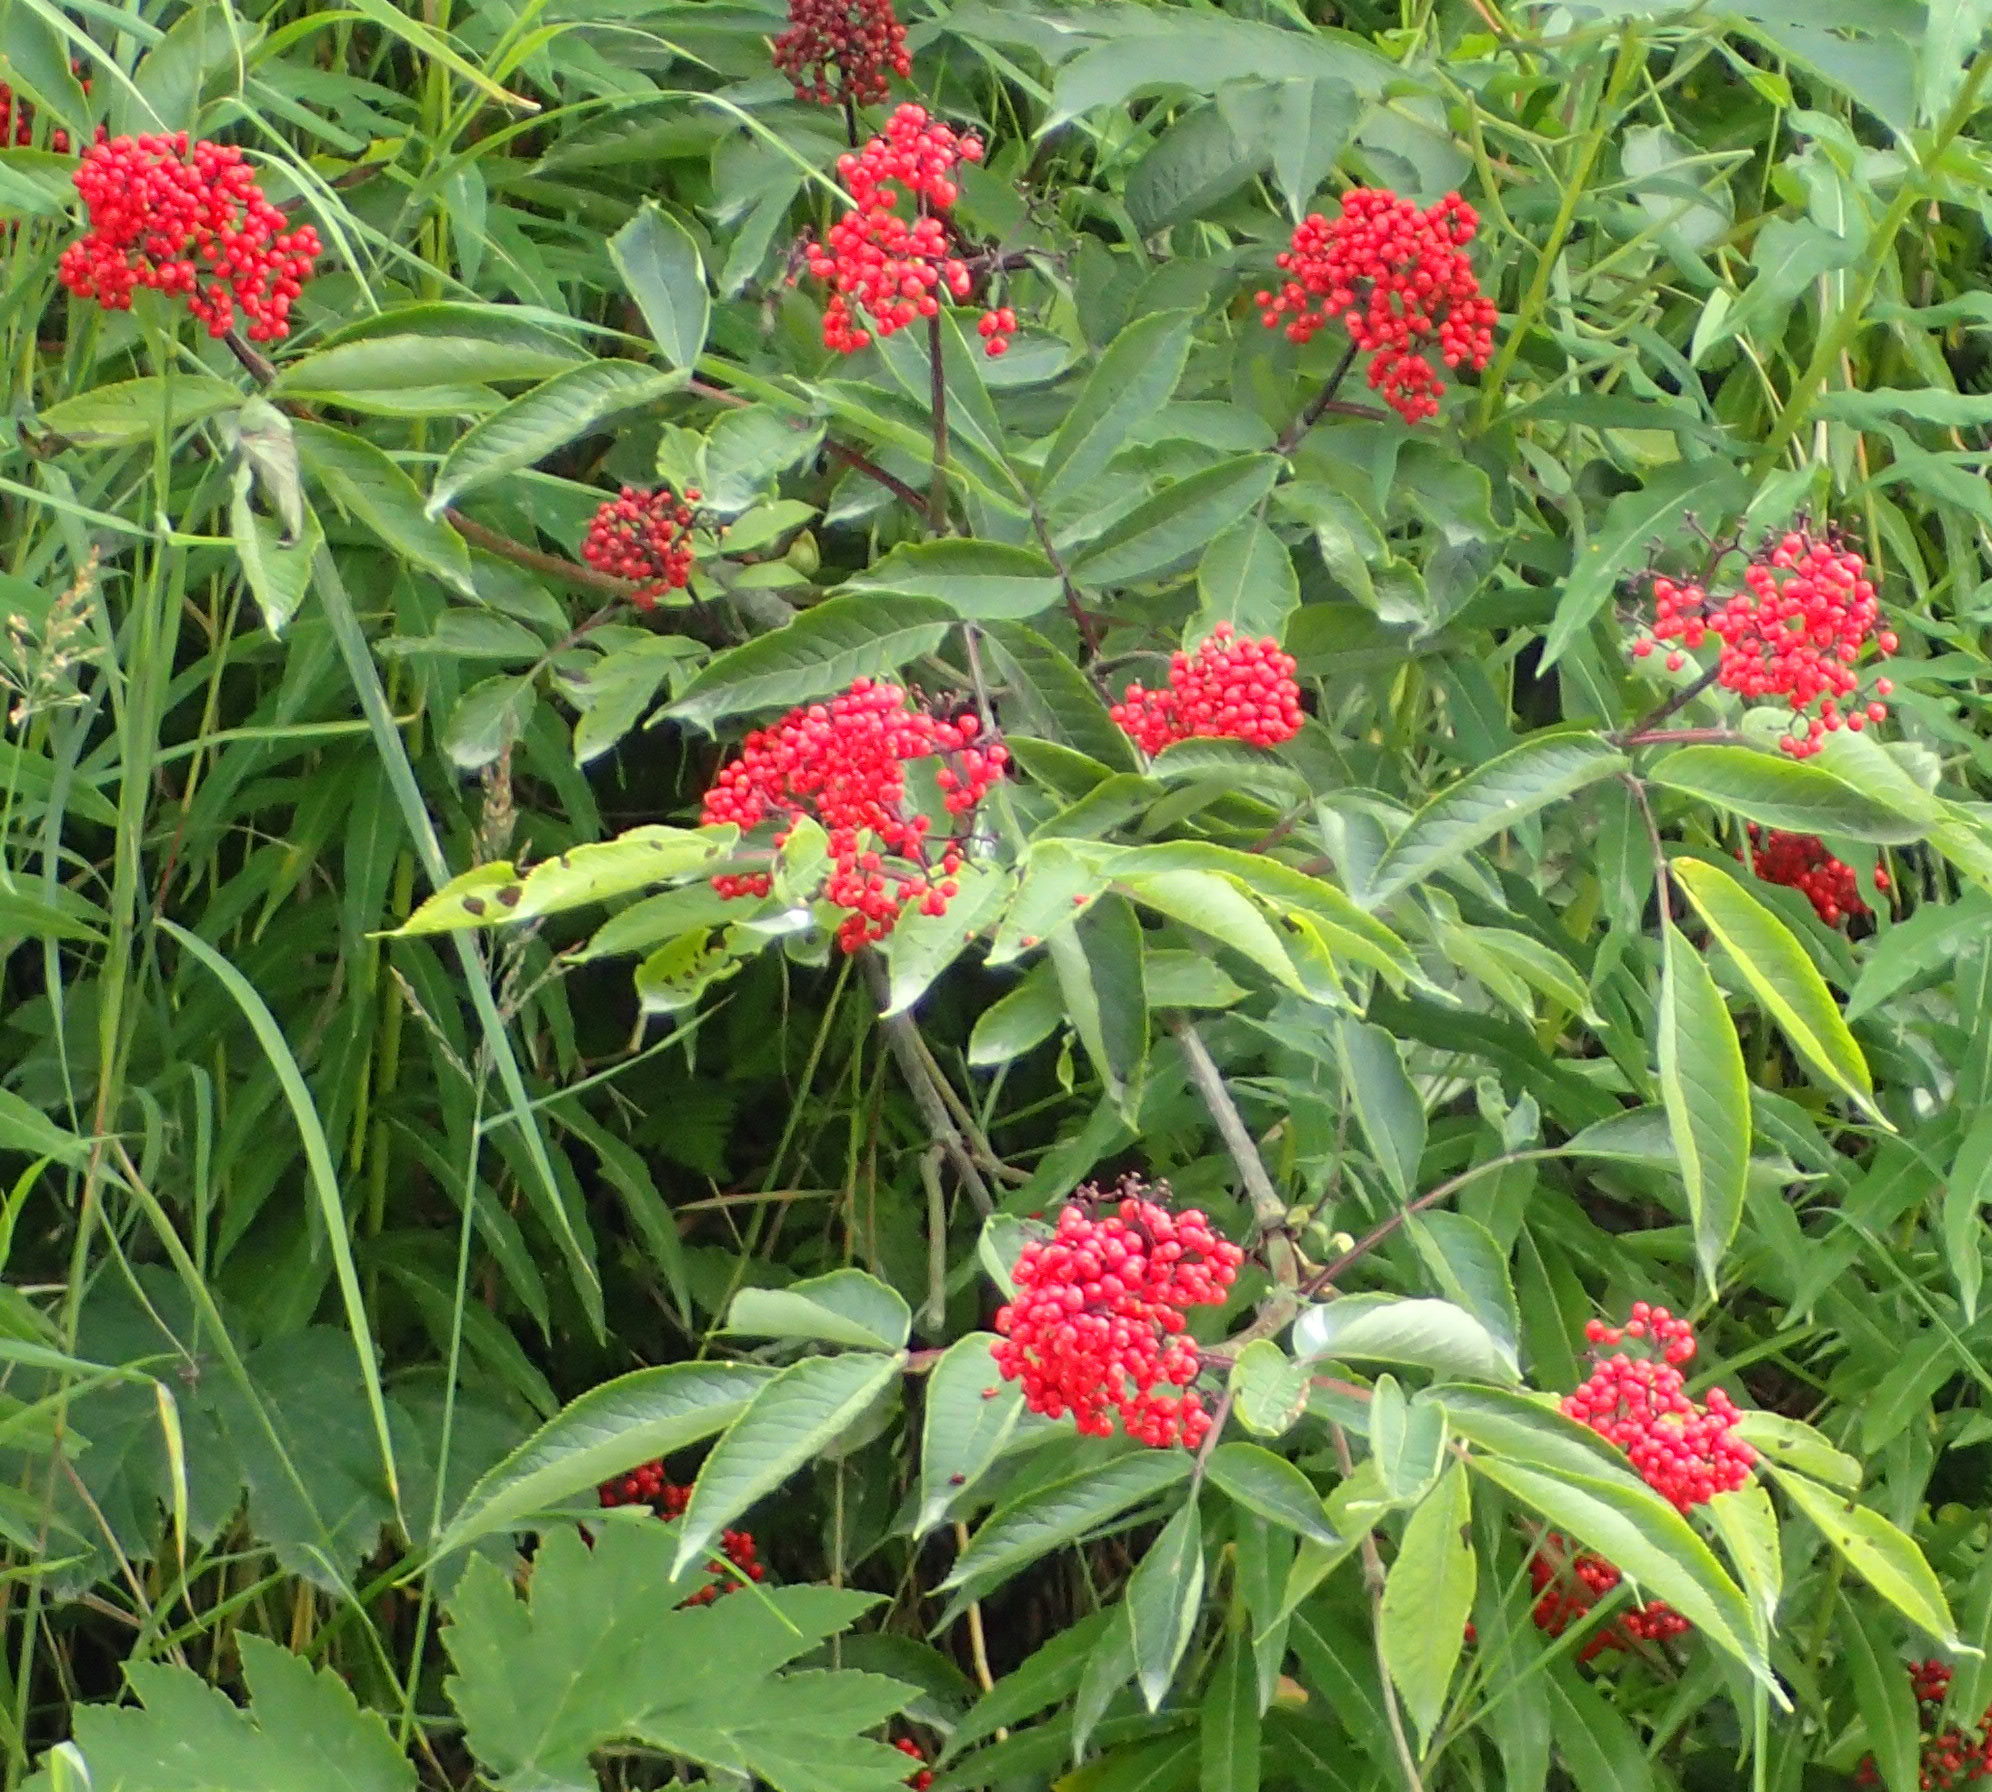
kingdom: Plantae
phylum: Tracheophyta
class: Magnoliopsida
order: Dipsacales
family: Viburnaceae
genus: Sambucus
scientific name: Sambucus racemosa
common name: Red-berried elder
